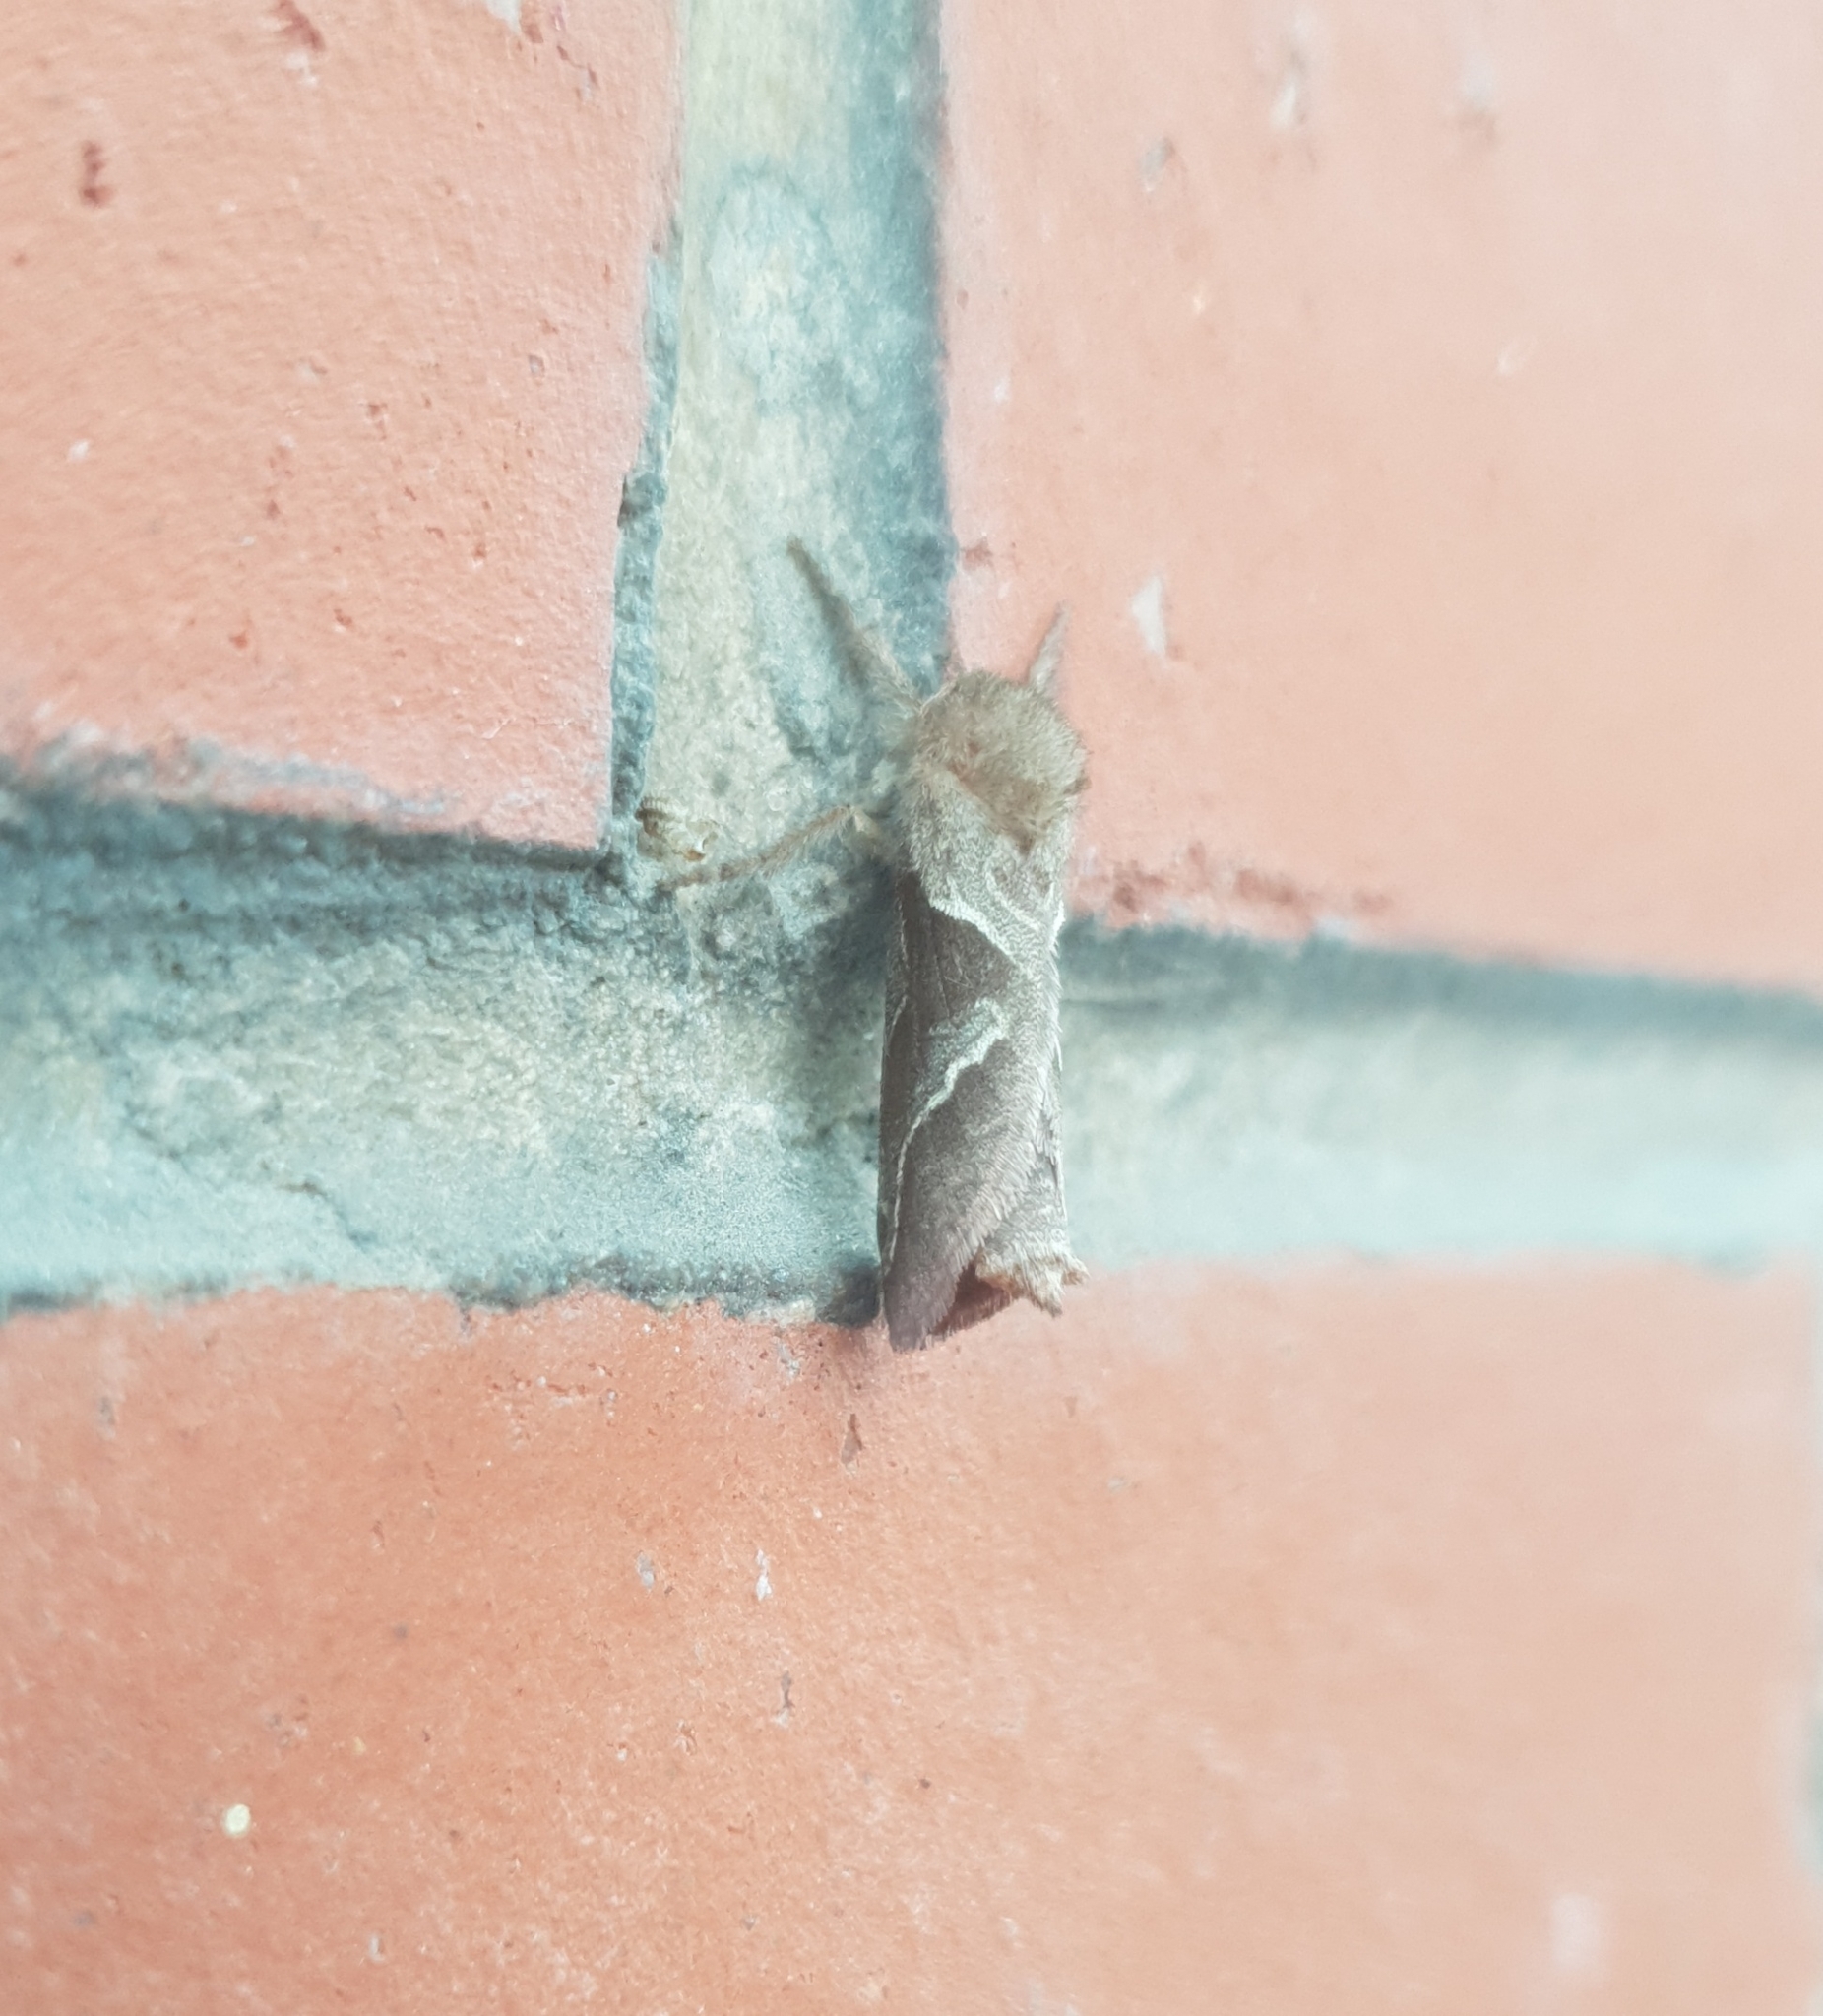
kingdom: Animalia
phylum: Arthropoda
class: Insecta
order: Lepidoptera
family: Hepialidae
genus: Triodia
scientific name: Triodia sylvina
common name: Orange swift
